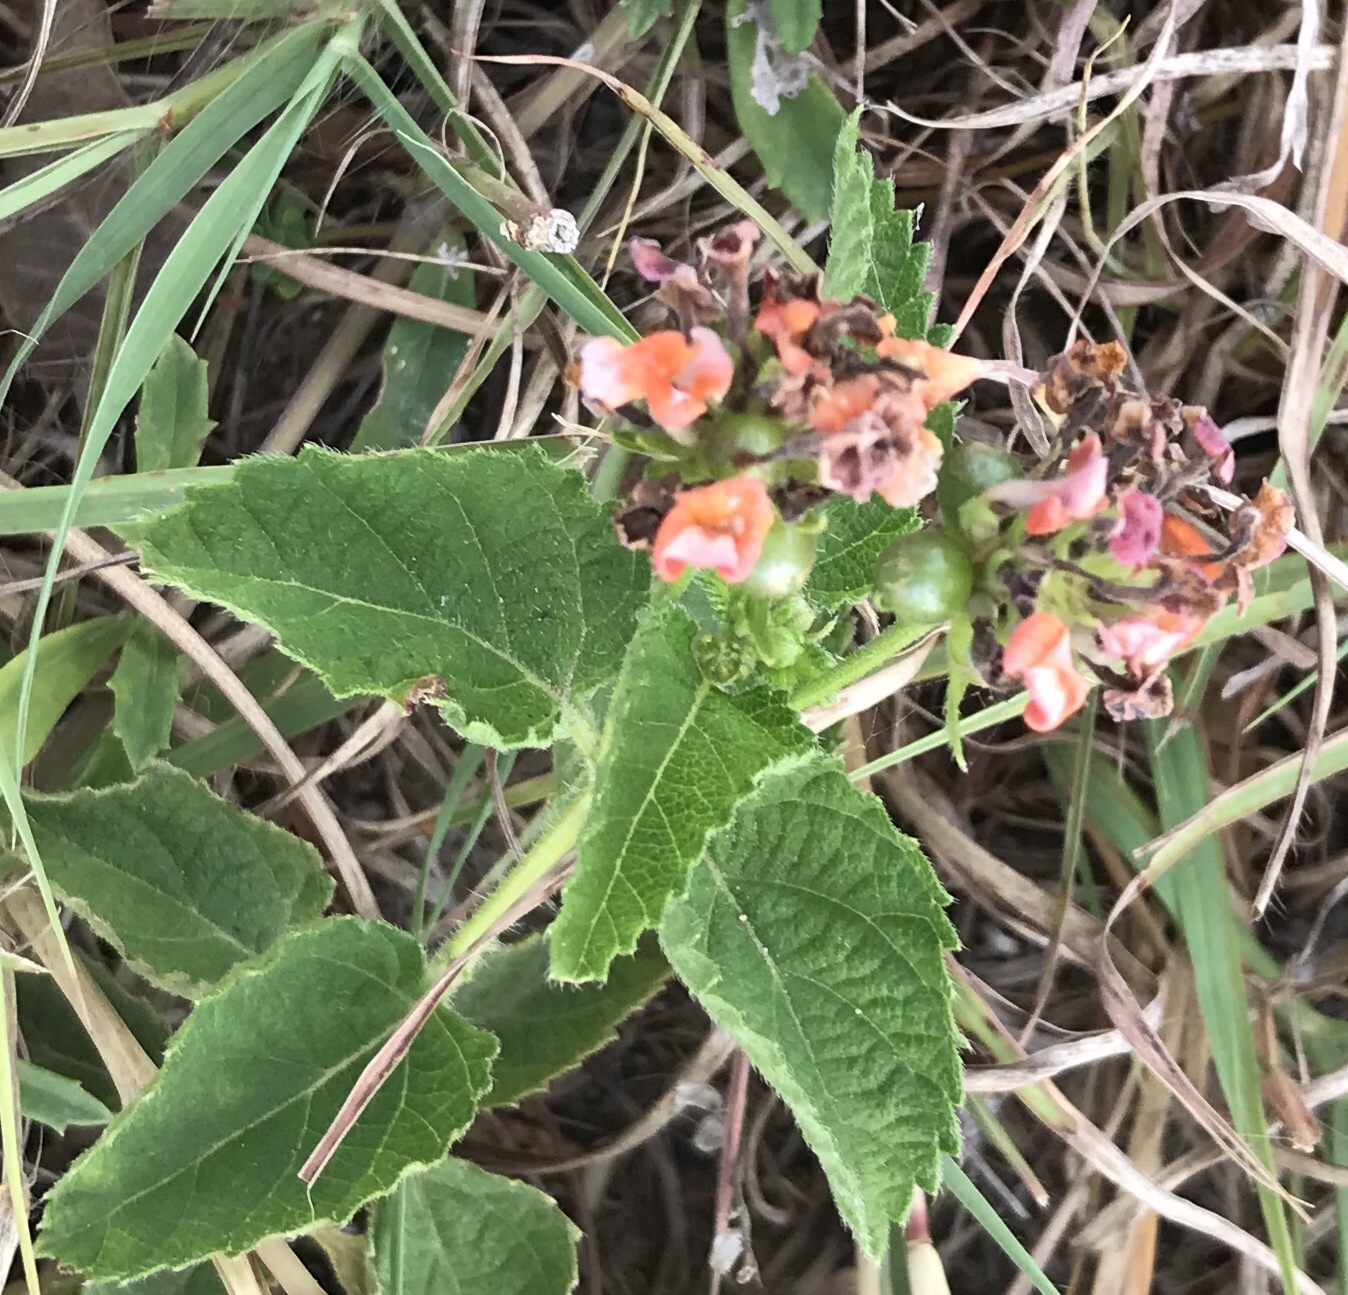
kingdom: Plantae
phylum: Tracheophyta
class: Magnoliopsida
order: Lamiales
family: Verbenaceae
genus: Lantana
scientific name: Lantana strigocamara
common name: Lantana
